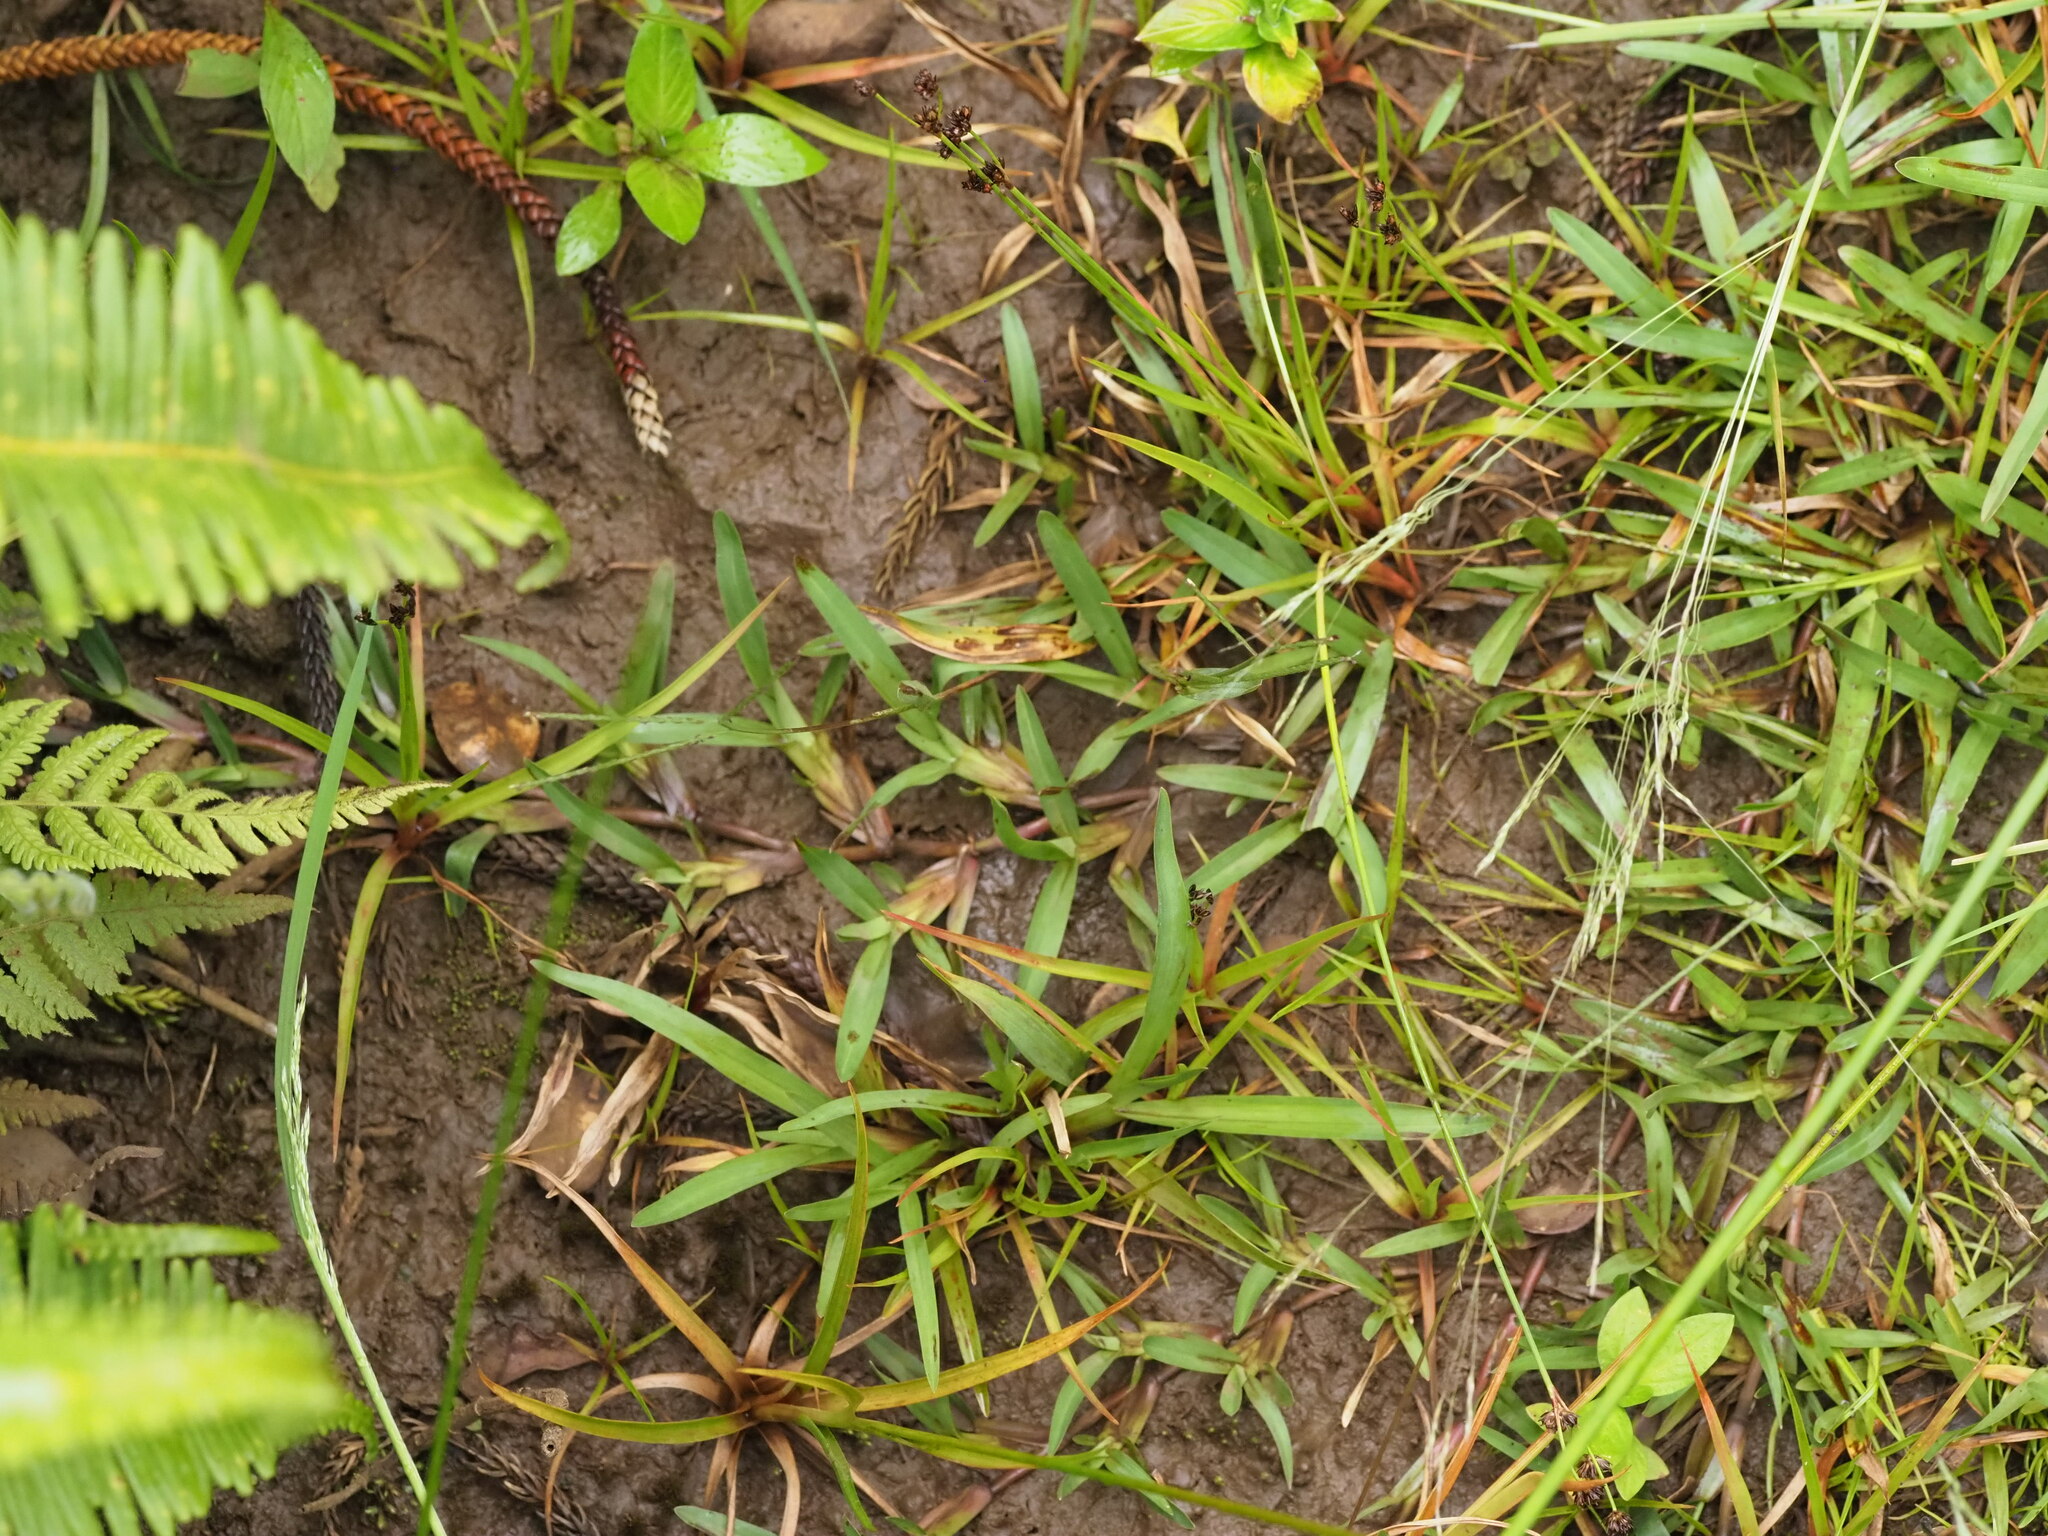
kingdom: Plantae
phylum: Tracheophyta
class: Liliopsida
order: Poales
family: Poaceae
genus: Axonopus
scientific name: Axonopus fissifolius
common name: Common carpetgrass
